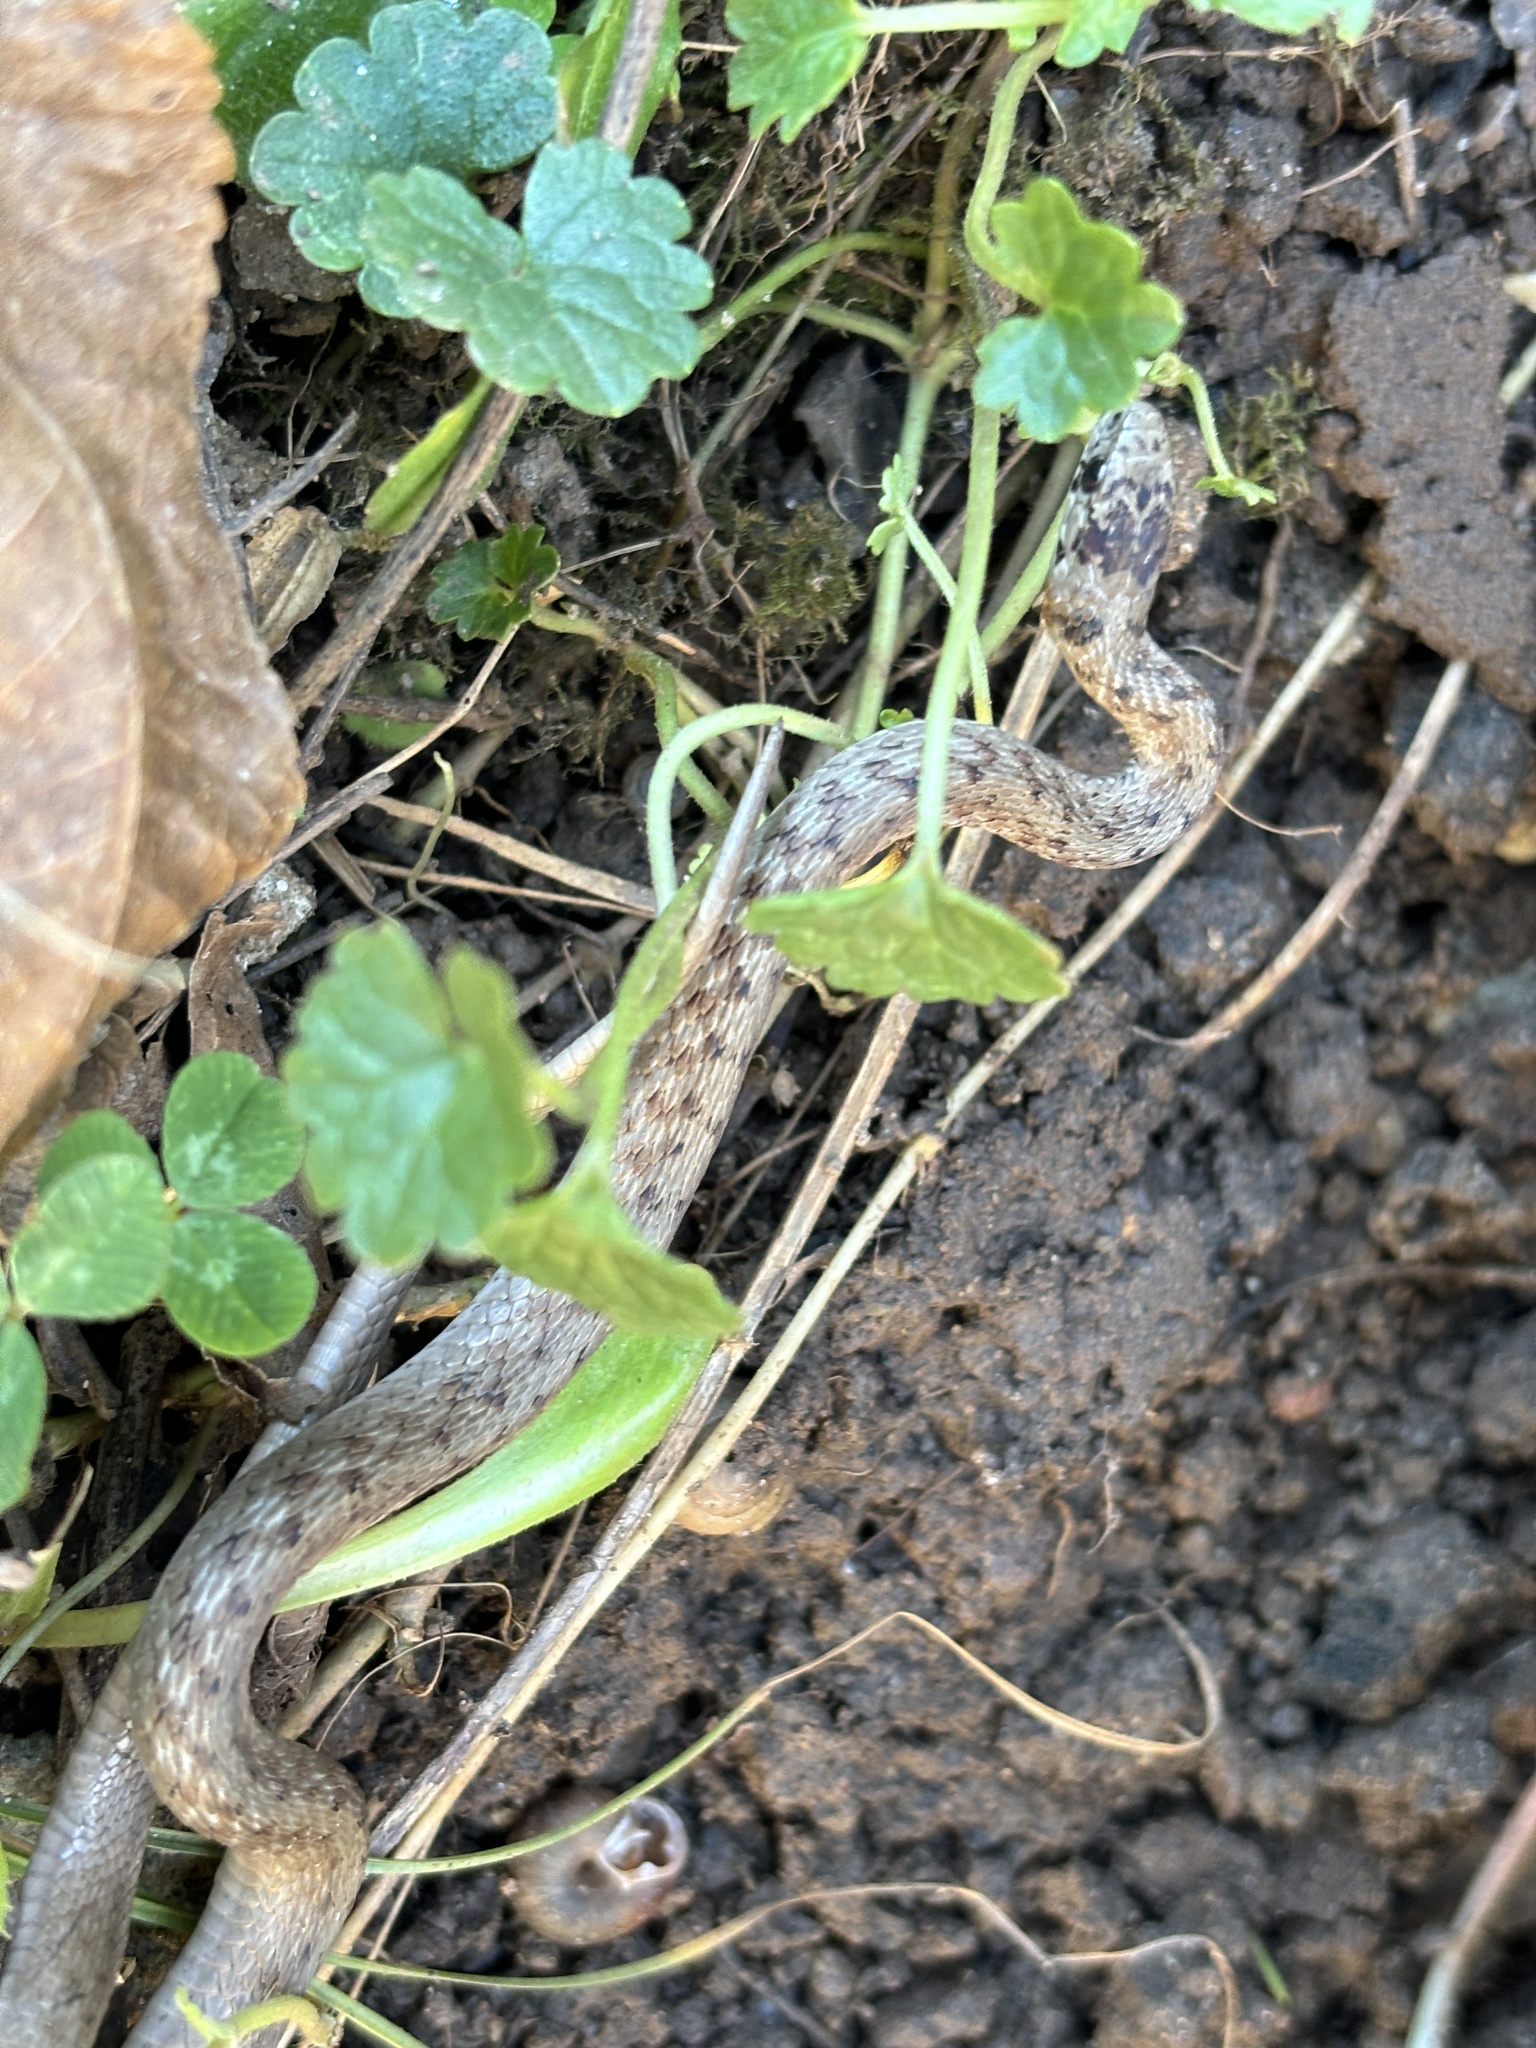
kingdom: Animalia
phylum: Chordata
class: Squamata
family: Colubridae
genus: Storeria
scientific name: Storeria dekayi
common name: (dekay’s) brown snake
